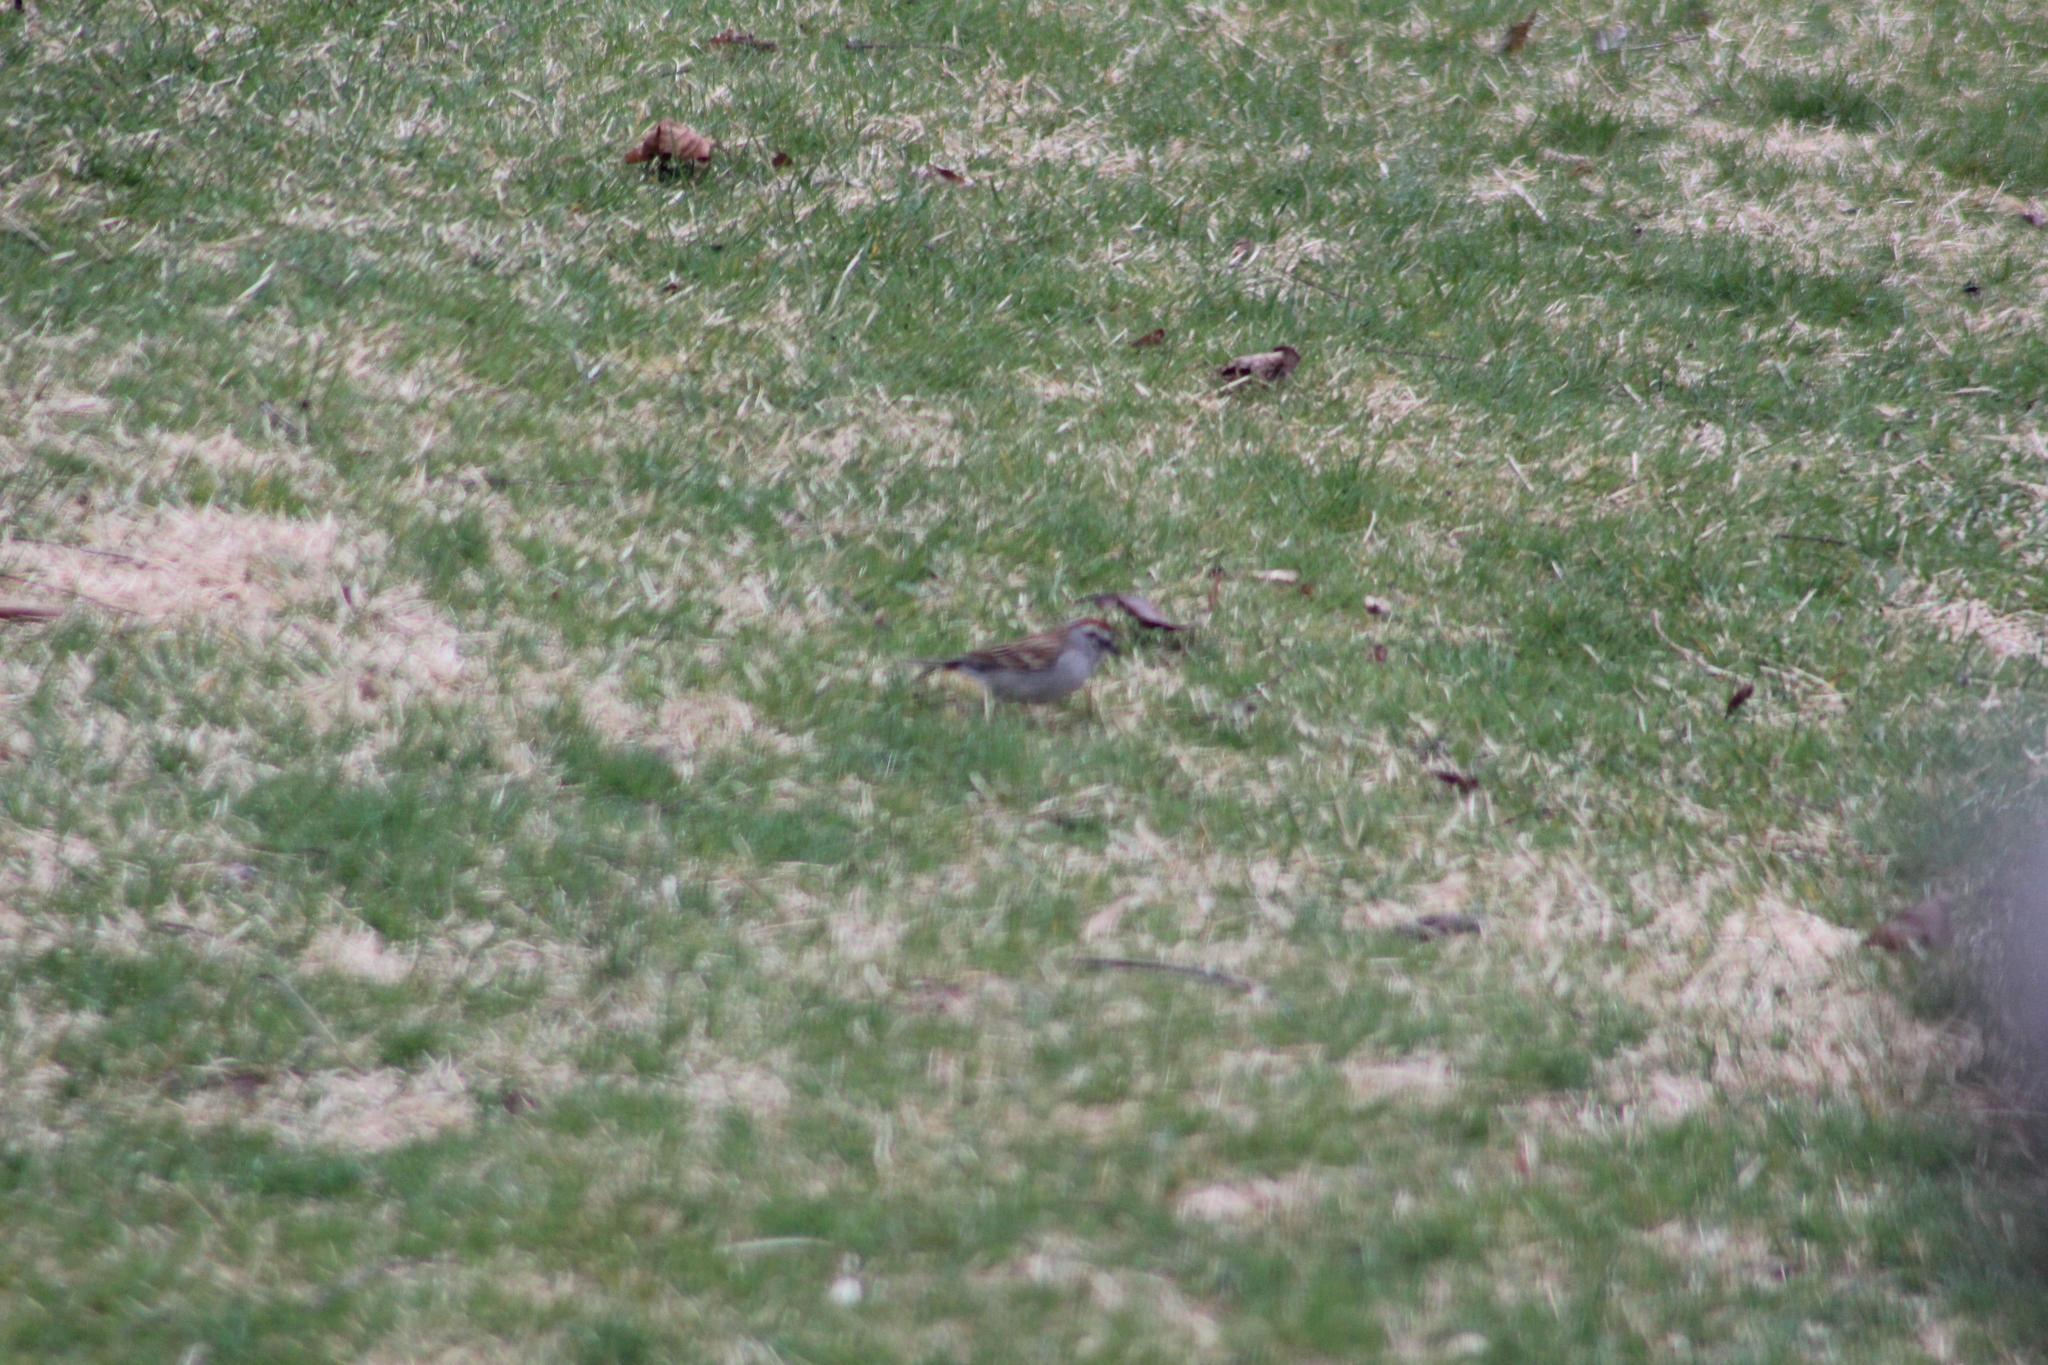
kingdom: Animalia
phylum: Chordata
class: Aves
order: Passeriformes
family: Passerellidae
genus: Spizella
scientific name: Spizella passerina
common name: Chipping sparrow
